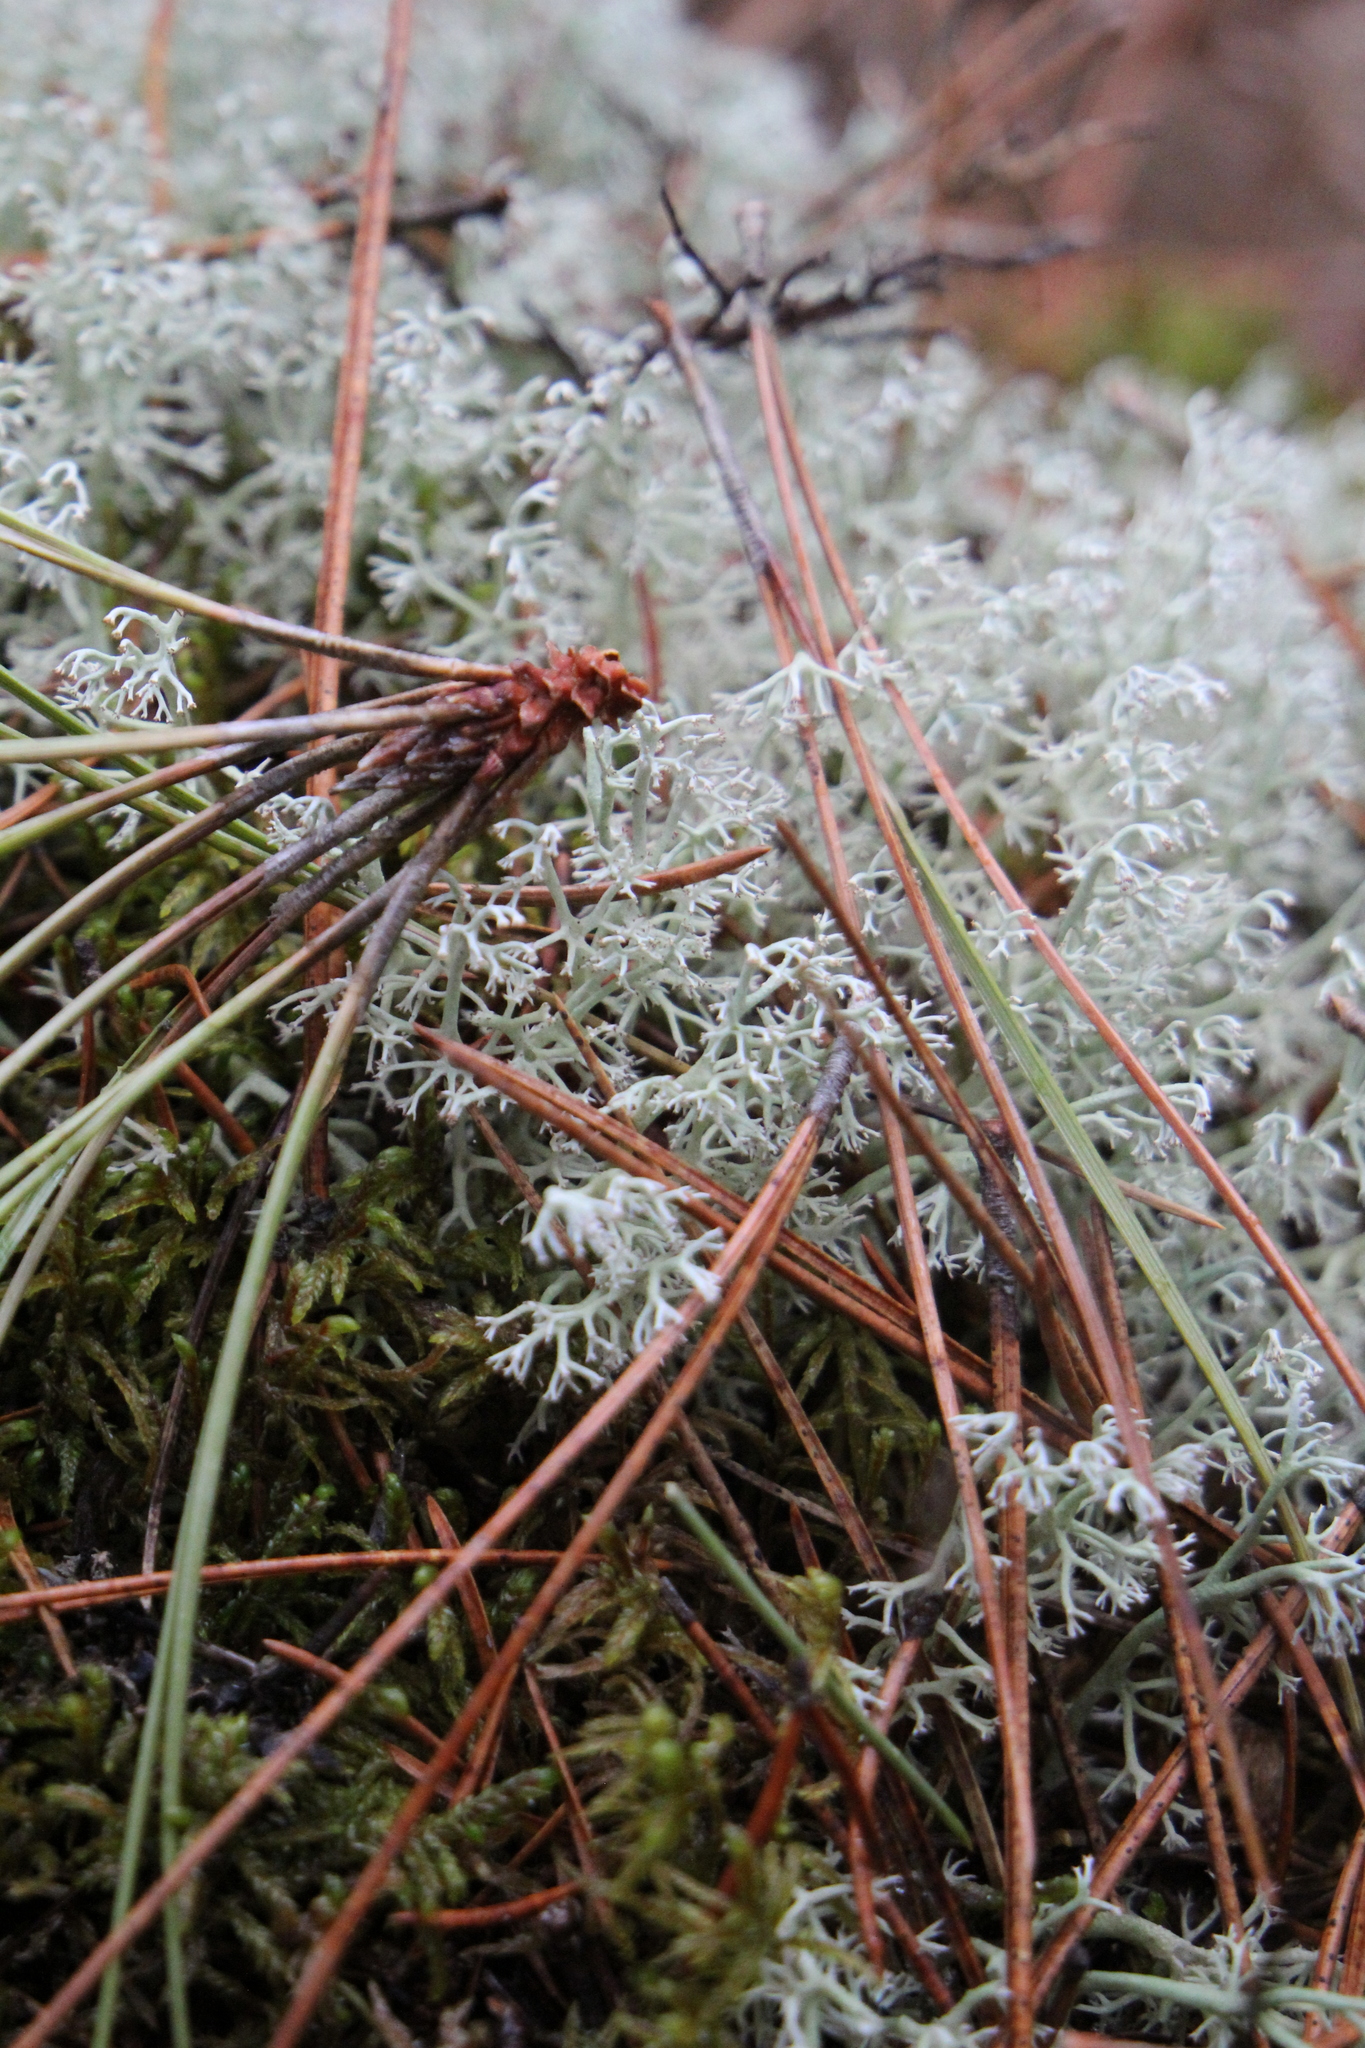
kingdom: Fungi
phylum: Ascomycota
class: Lecanoromycetes
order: Lecanorales
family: Cladoniaceae
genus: Cladonia
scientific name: Cladonia rangiferina
